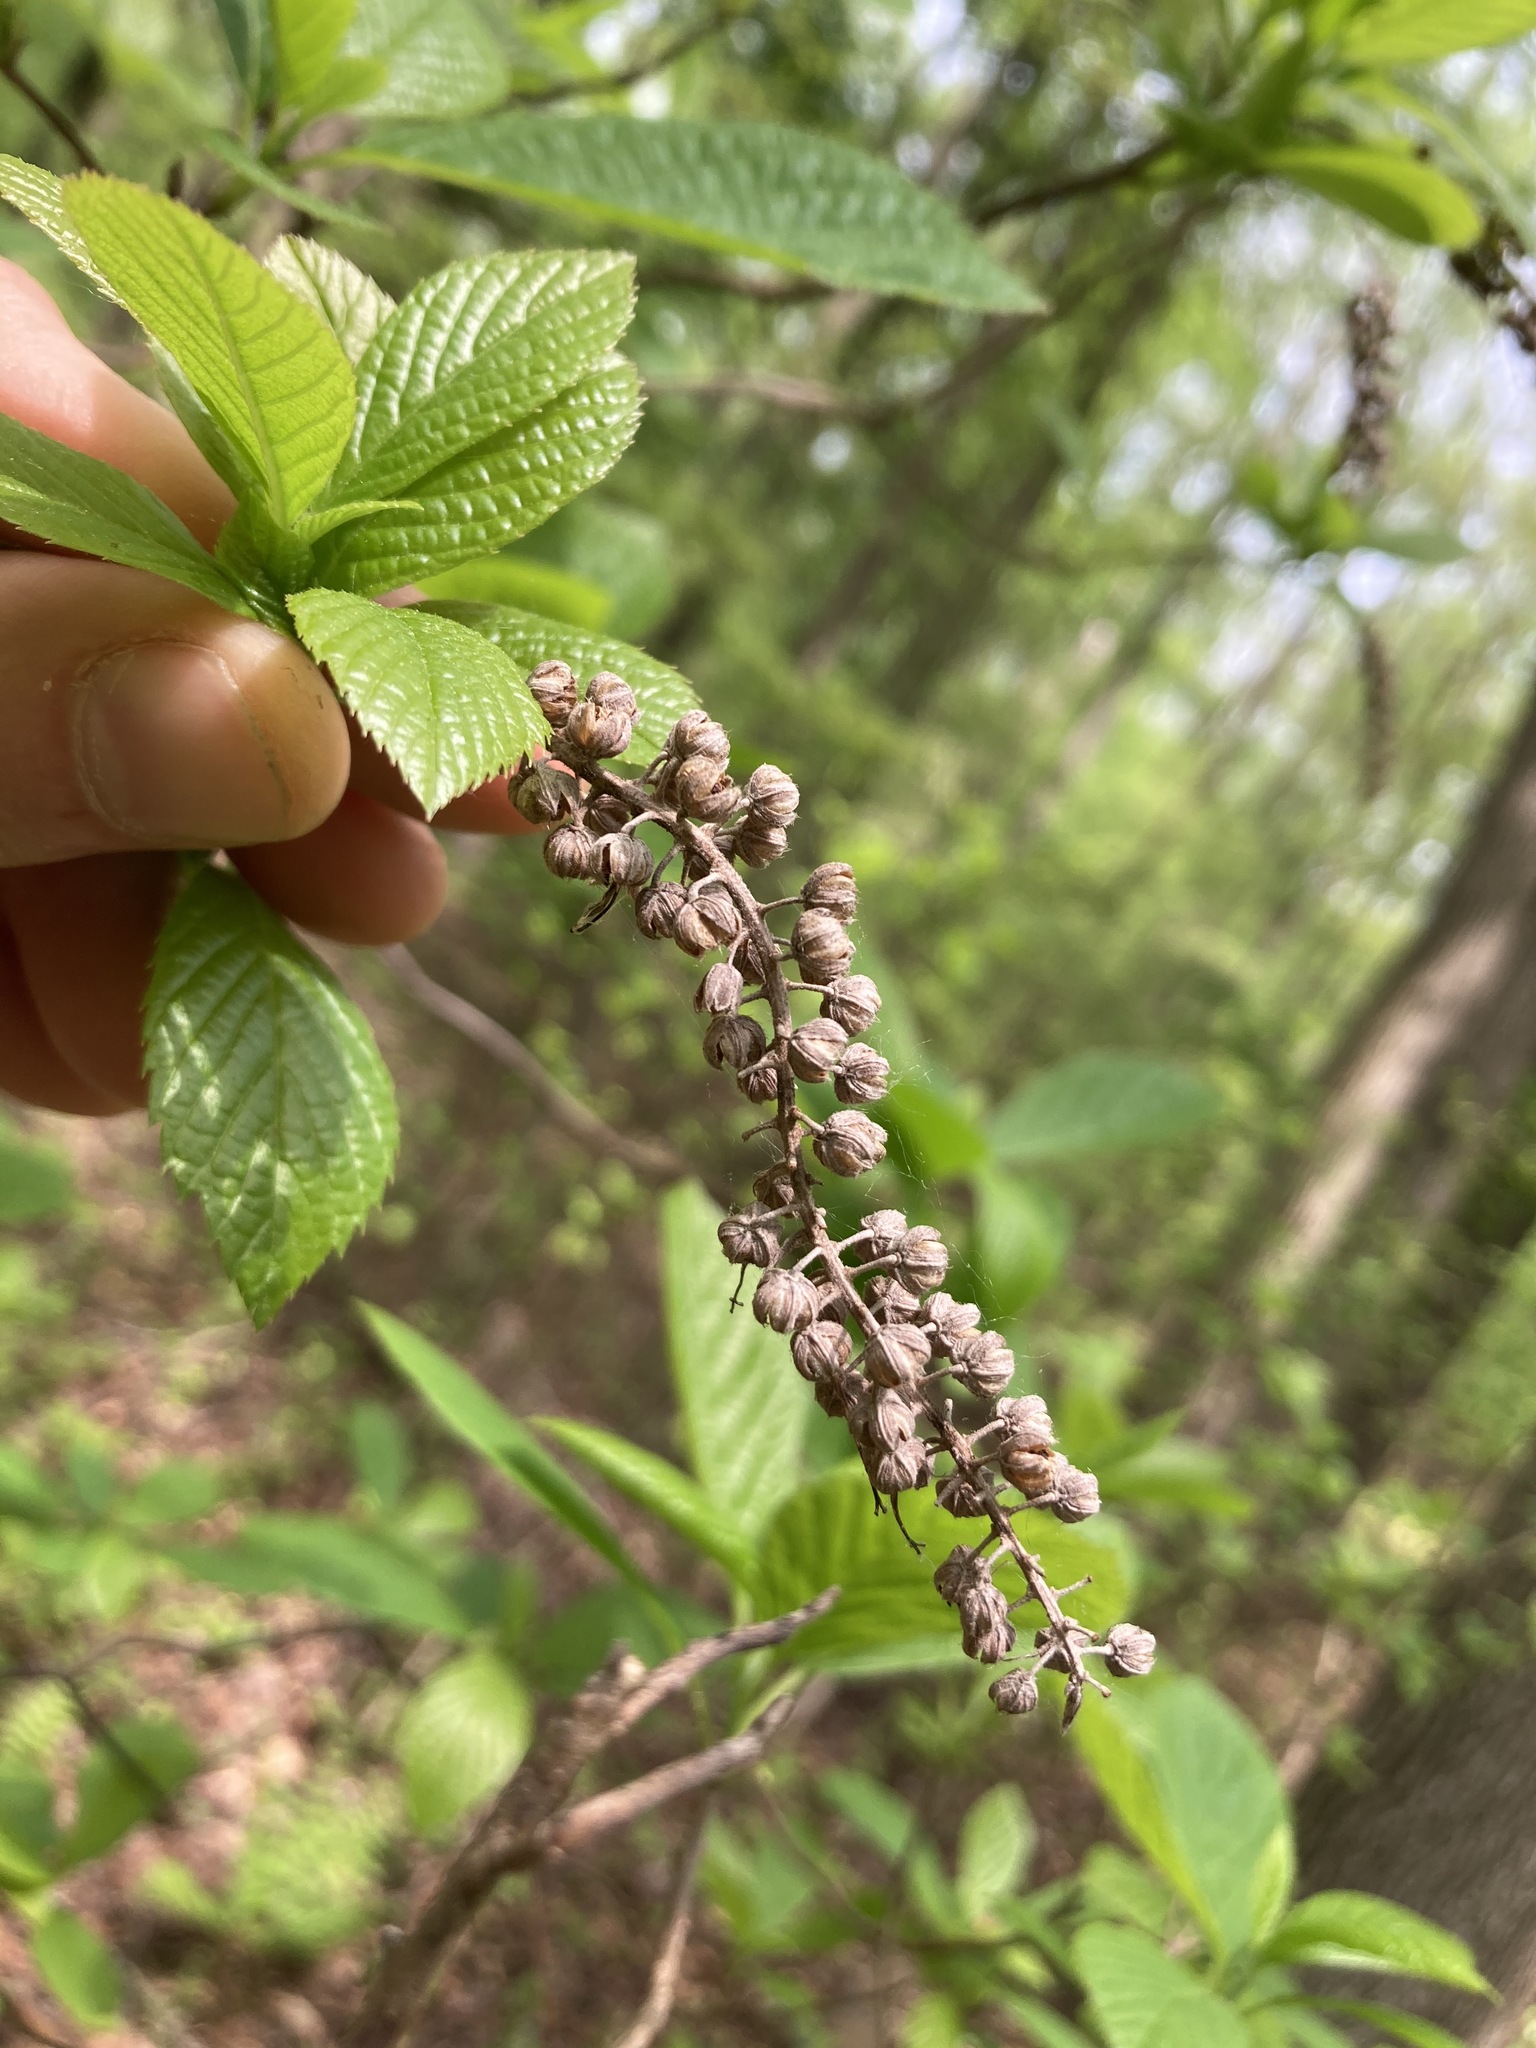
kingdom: Plantae
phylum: Tracheophyta
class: Magnoliopsida
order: Ericales
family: Clethraceae
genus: Clethra
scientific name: Clethra alnifolia
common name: Sweet pepperbush
